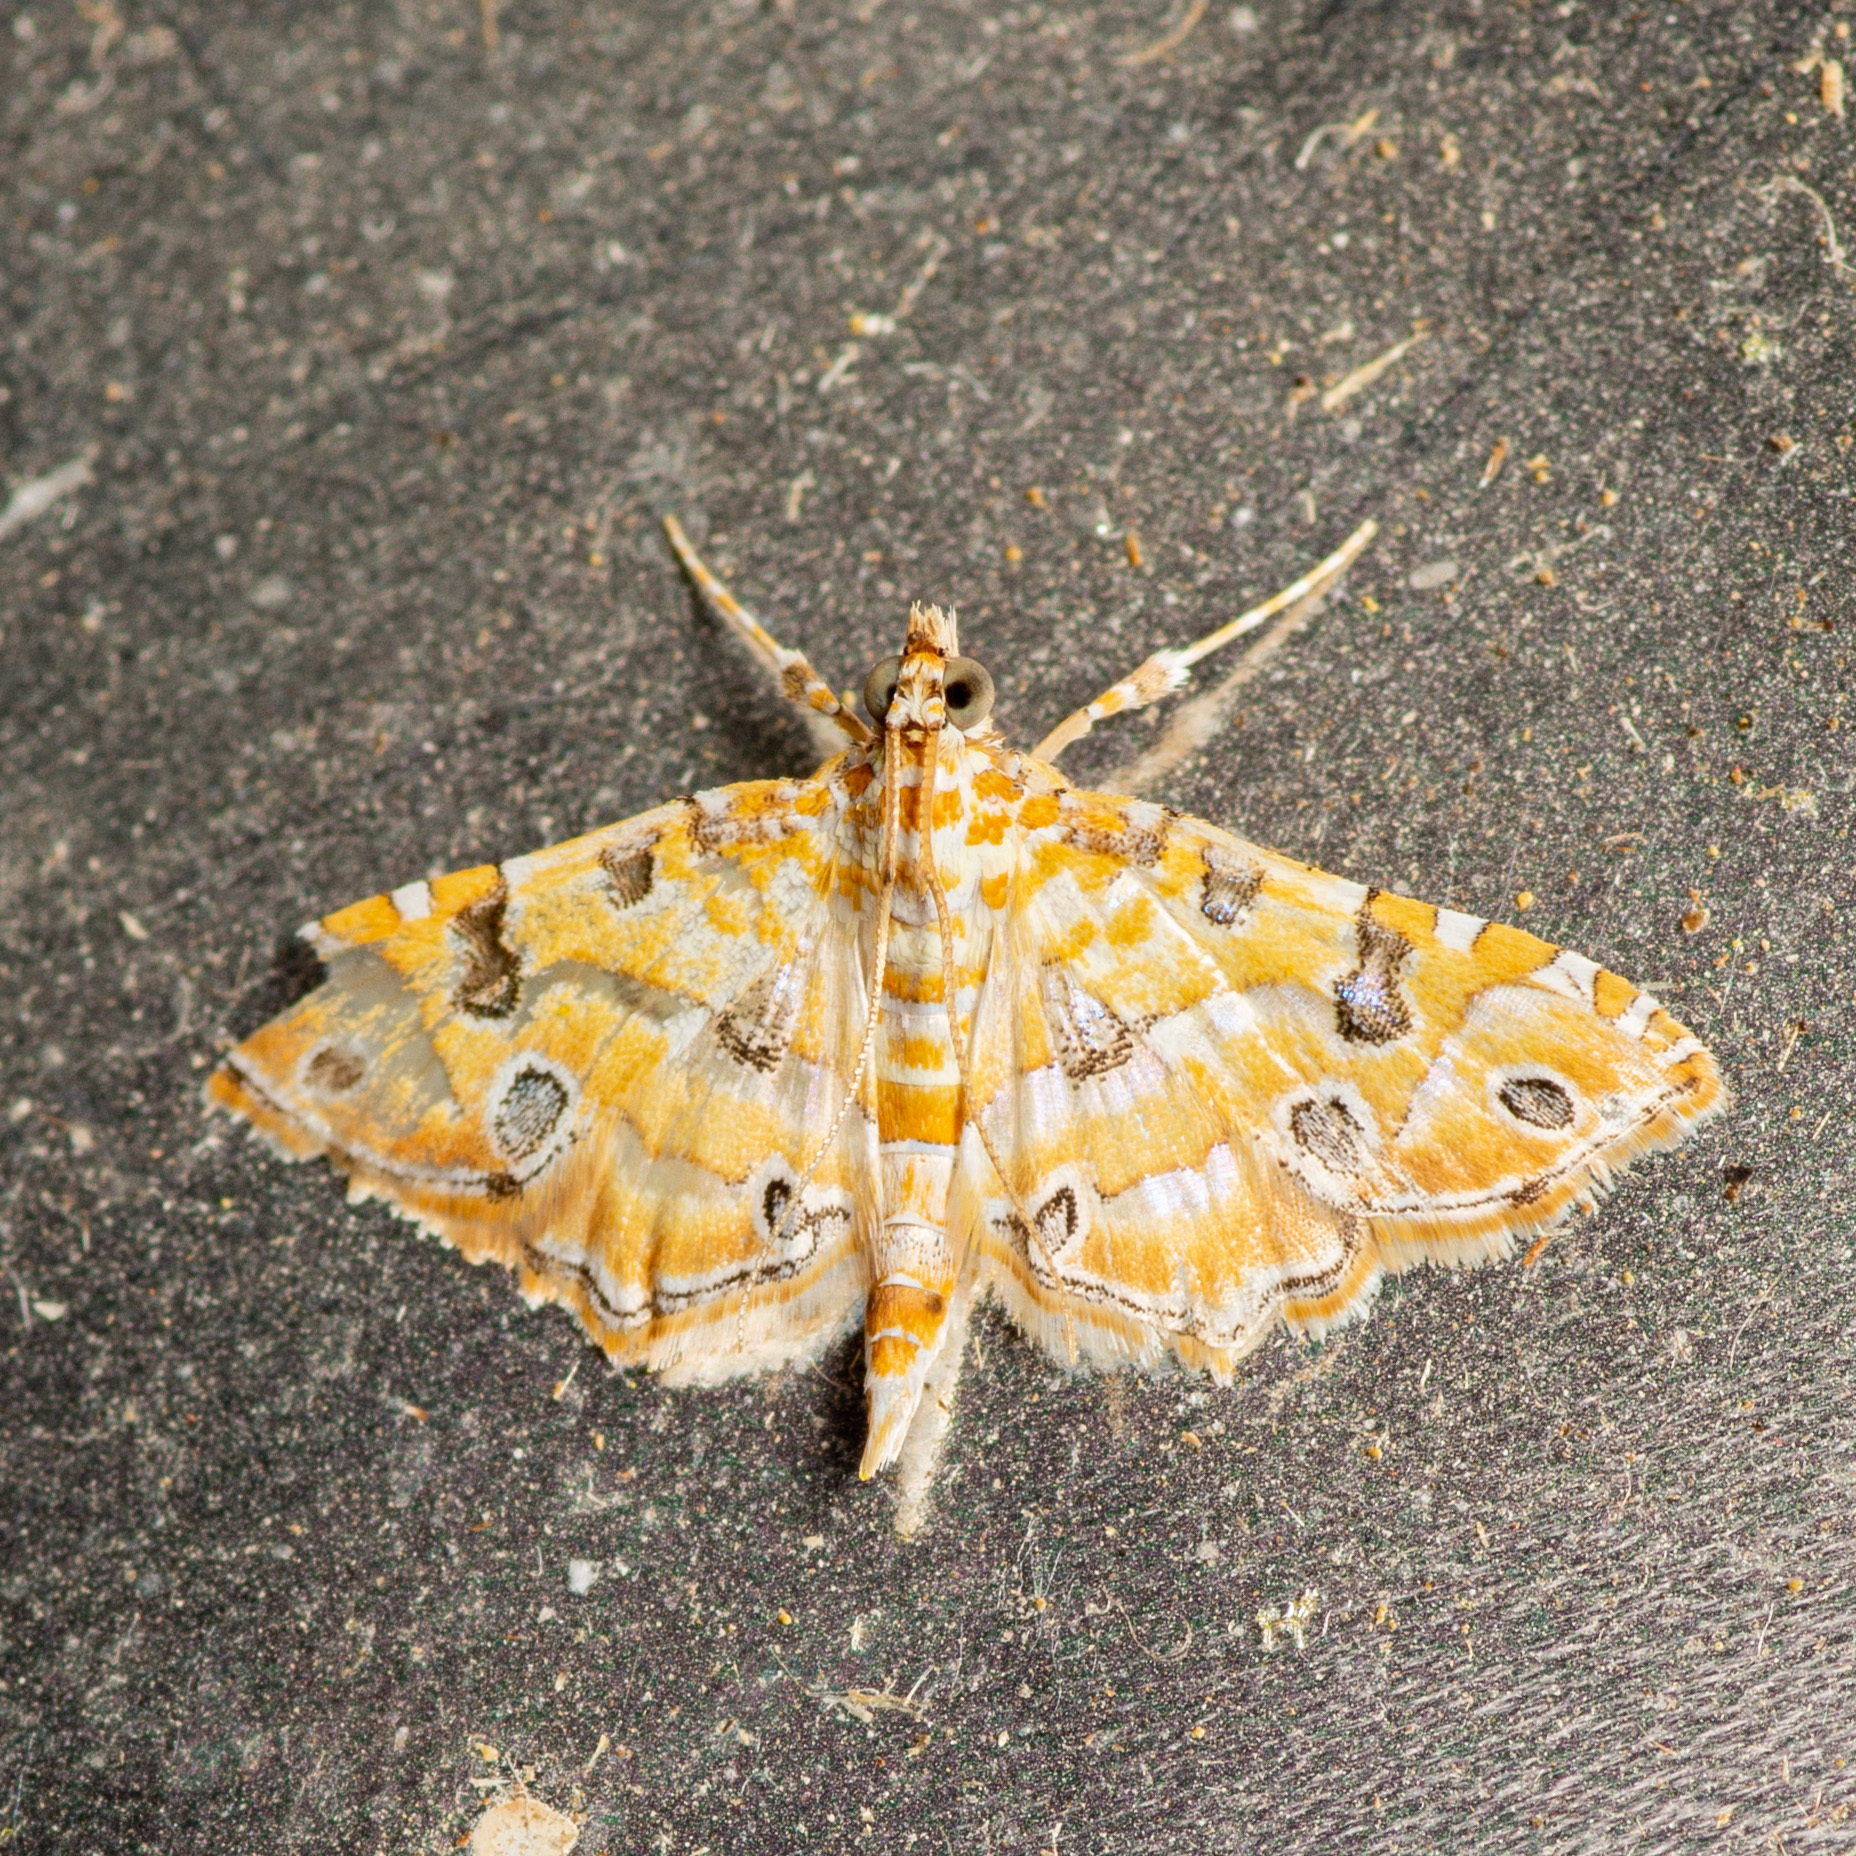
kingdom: Animalia
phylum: Arthropoda
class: Insecta
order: Lepidoptera
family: Crambidae
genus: Ommatospila
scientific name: Ommatospila narcaeusalis
